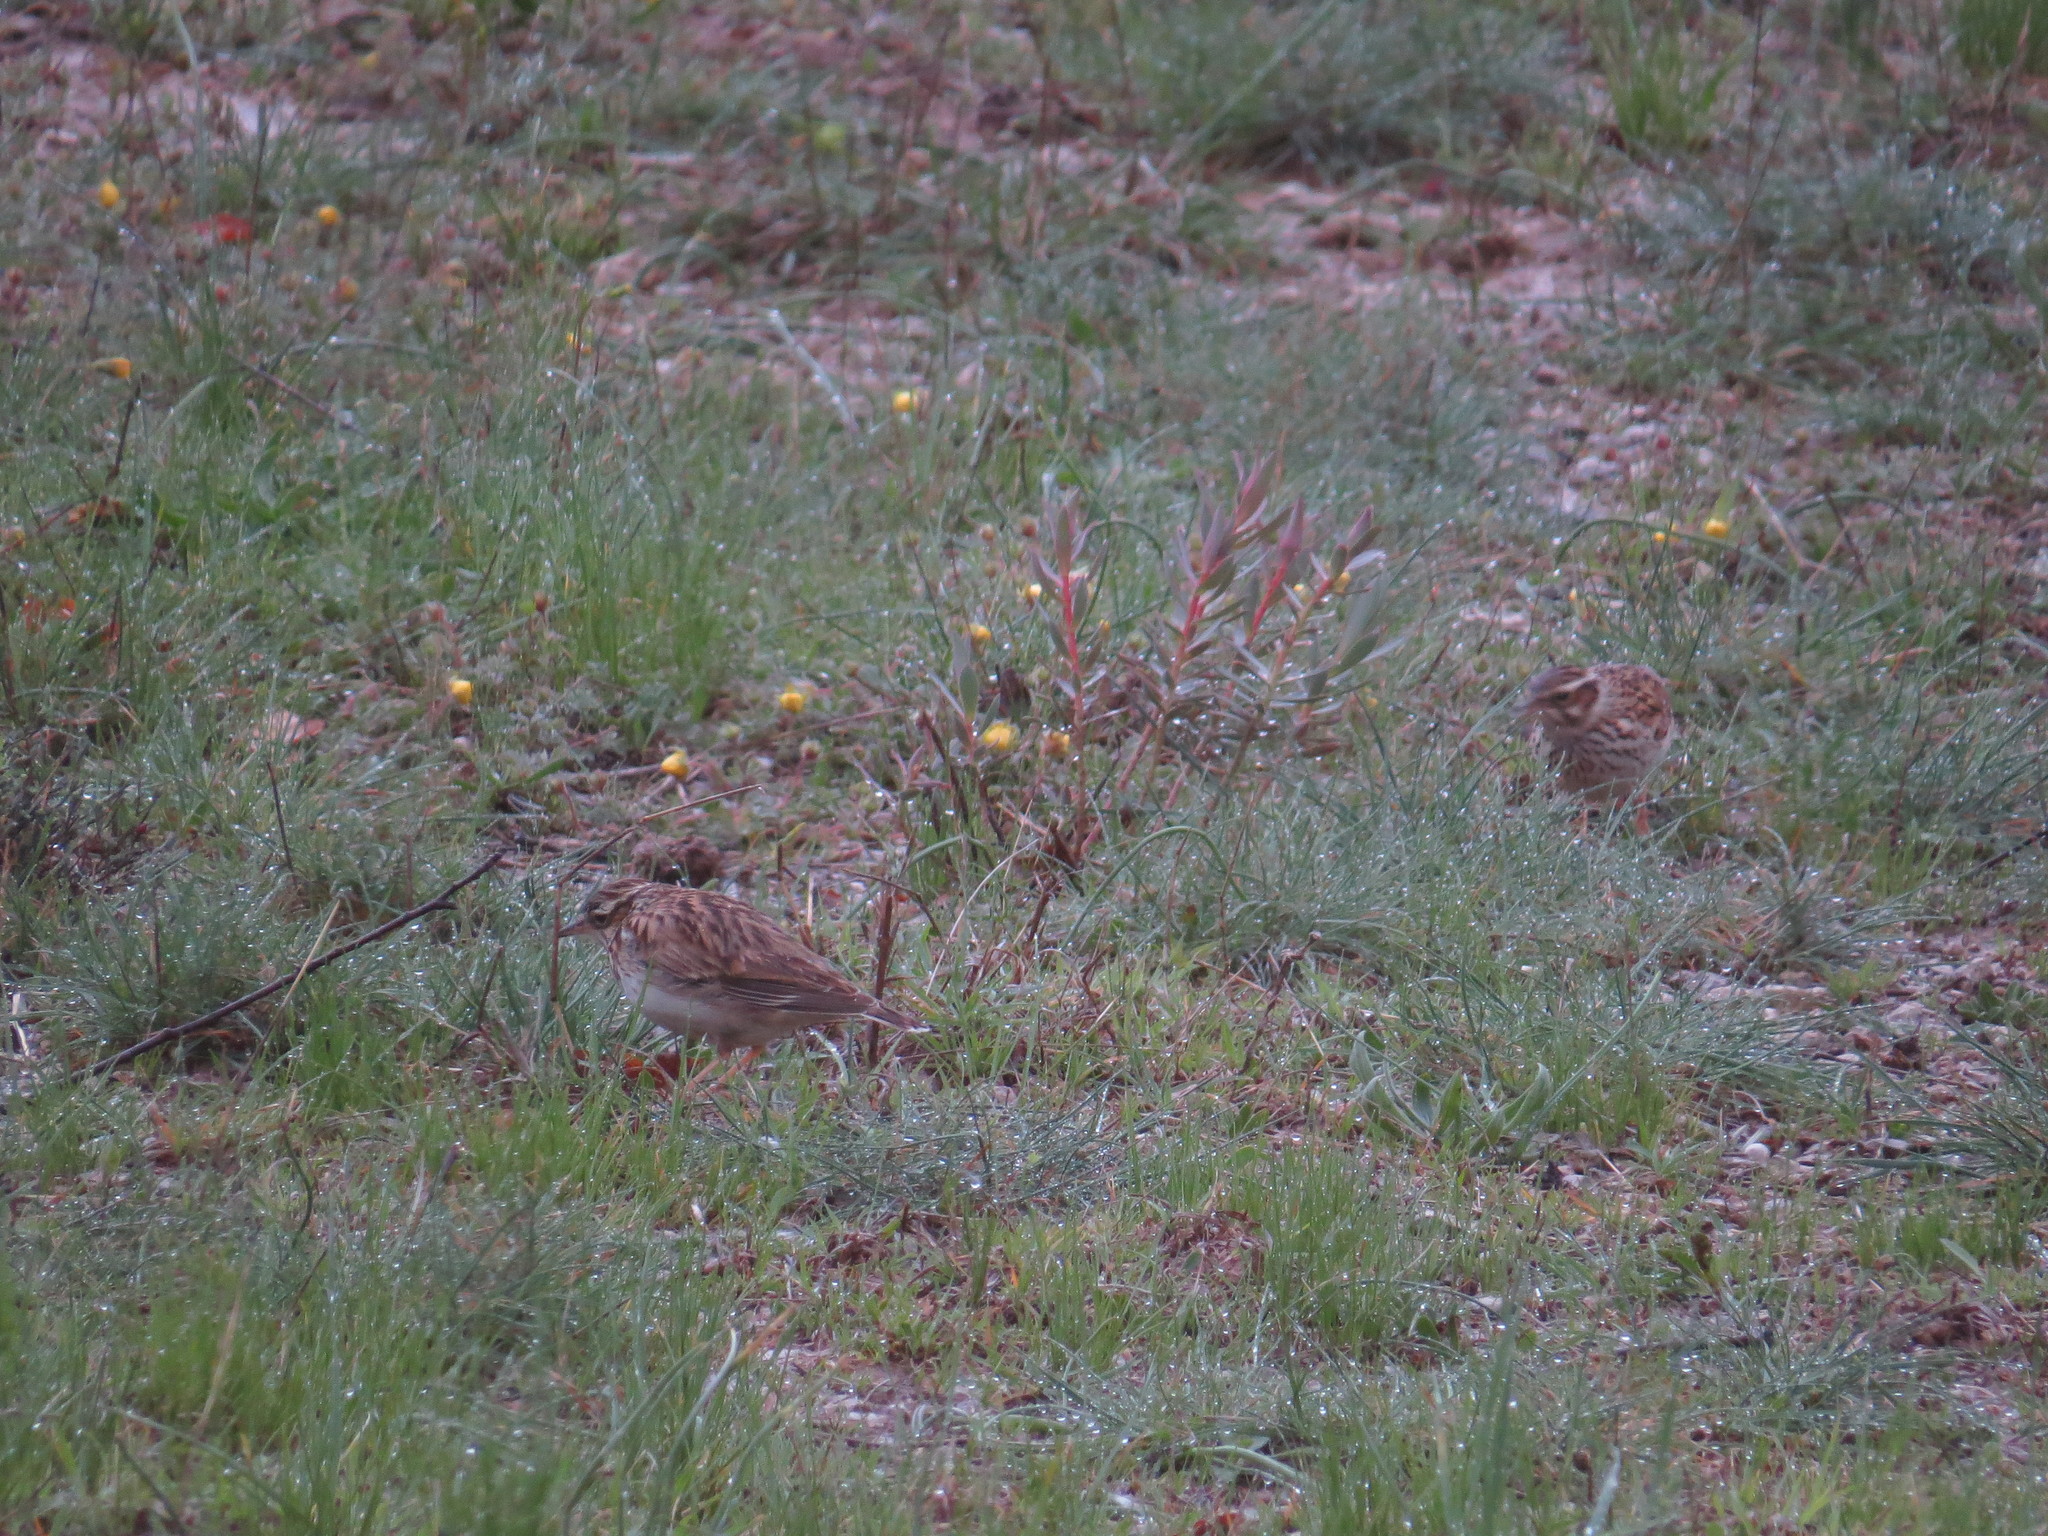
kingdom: Animalia
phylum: Chordata
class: Aves
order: Passeriformes
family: Alaudidae
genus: Lullula
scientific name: Lullula arborea
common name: Woodlark
